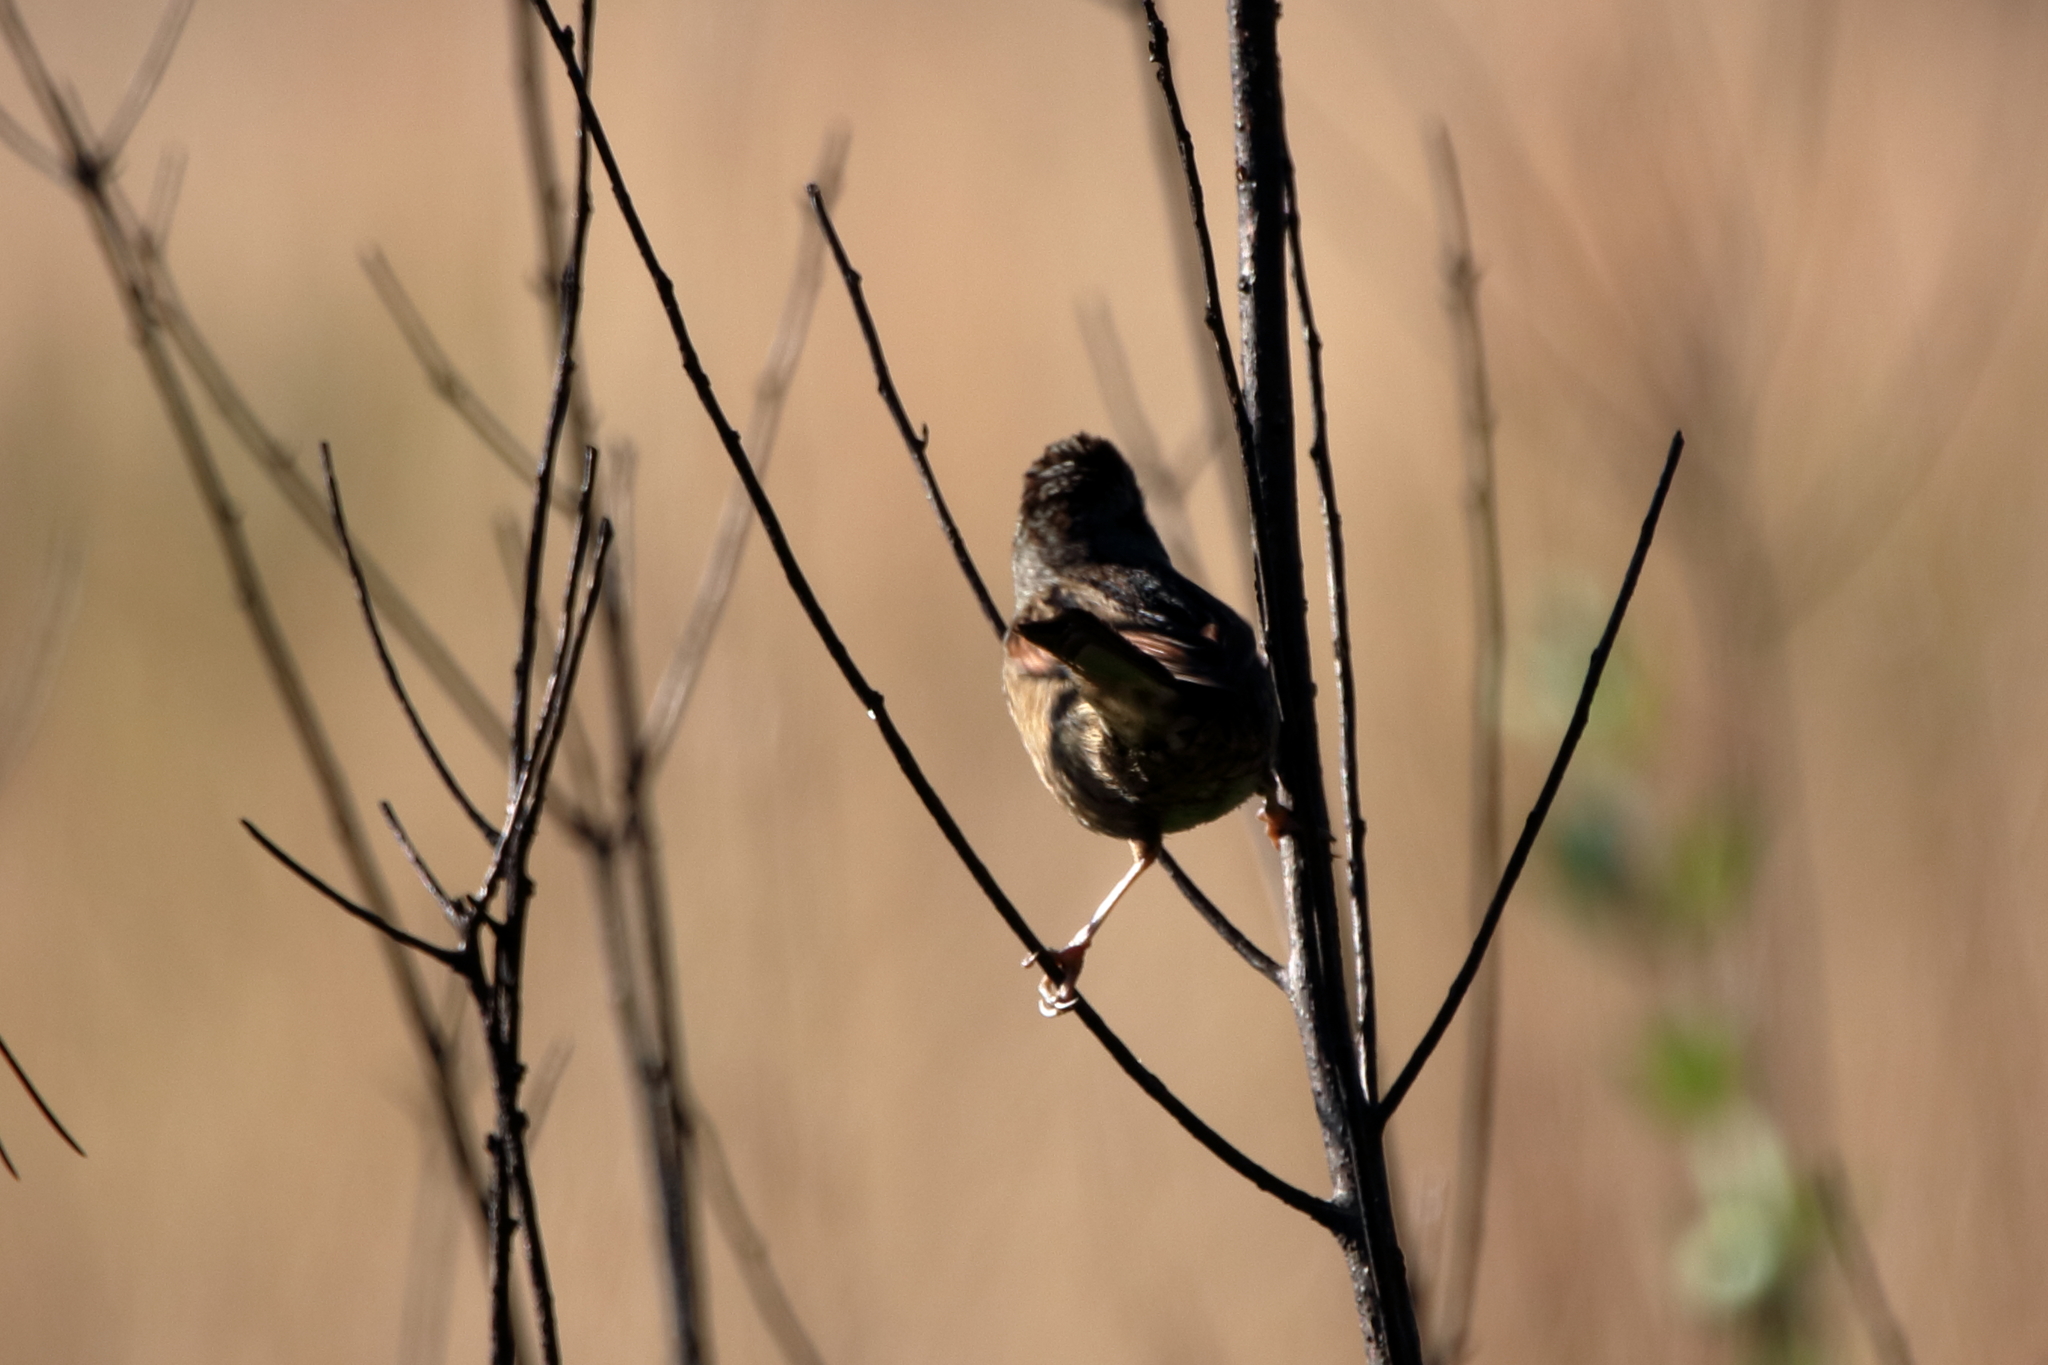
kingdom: Animalia
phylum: Chordata
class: Aves
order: Passeriformes
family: Passerellidae
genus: Melospiza
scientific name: Melospiza georgiana
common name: Swamp sparrow
